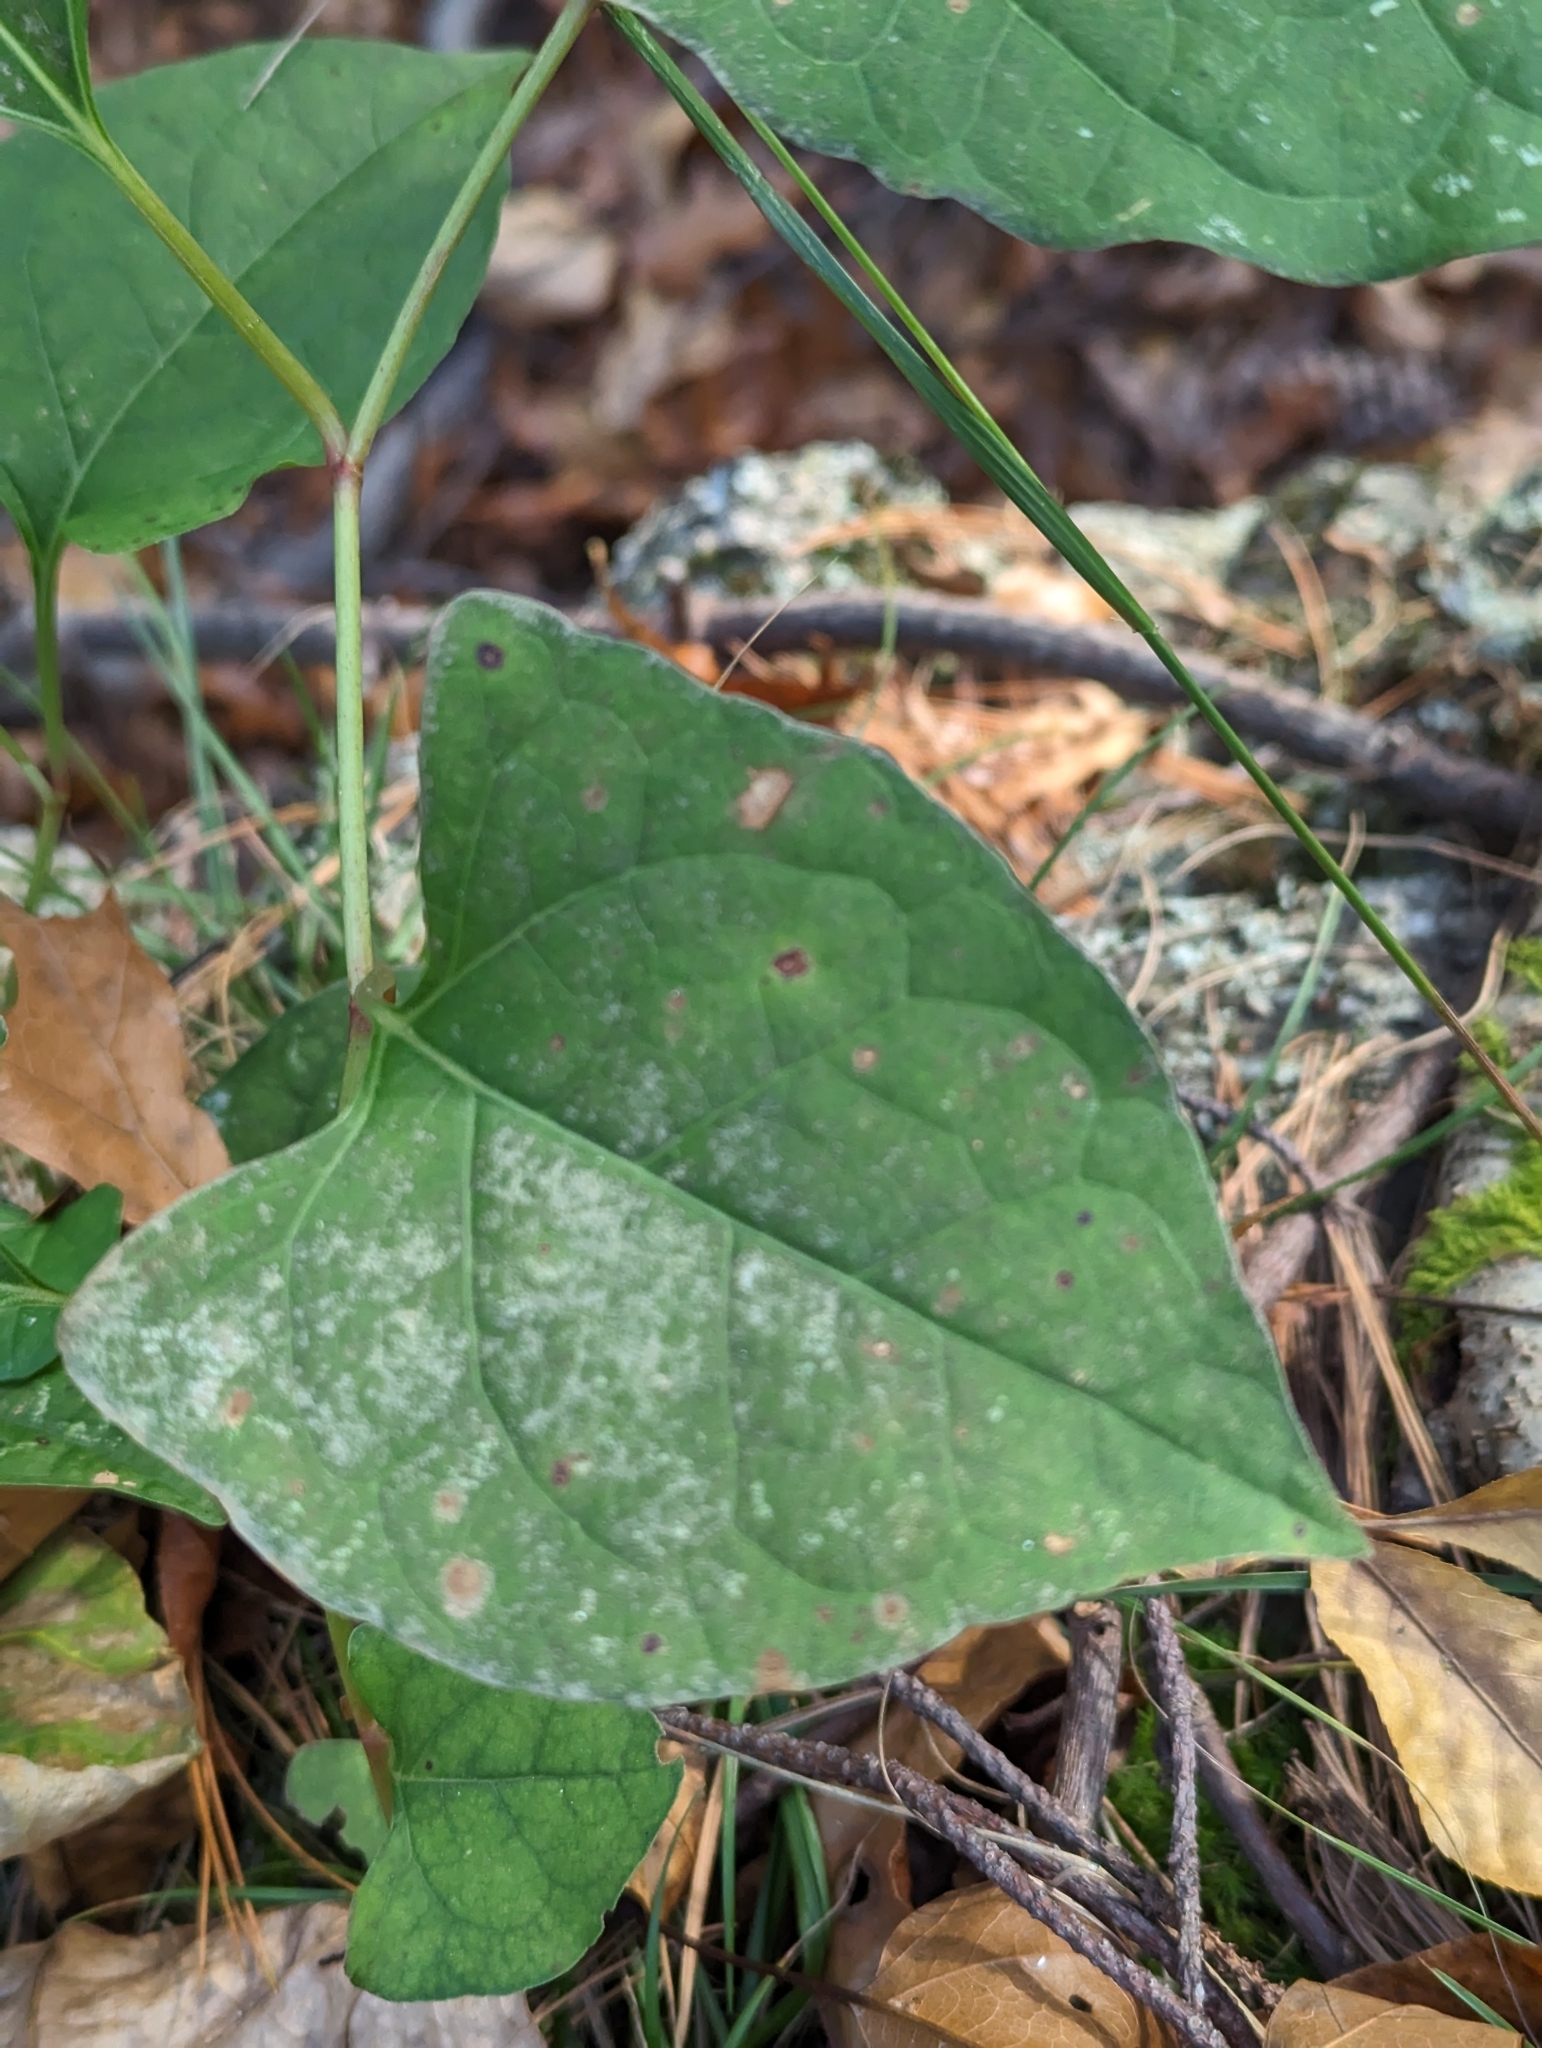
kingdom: Plantae
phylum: Tracheophyta
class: Magnoliopsida
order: Caryophyllales
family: Polygonaceae
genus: Reynoutria
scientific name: Reynoutria japonica
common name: Japanese knotweed
